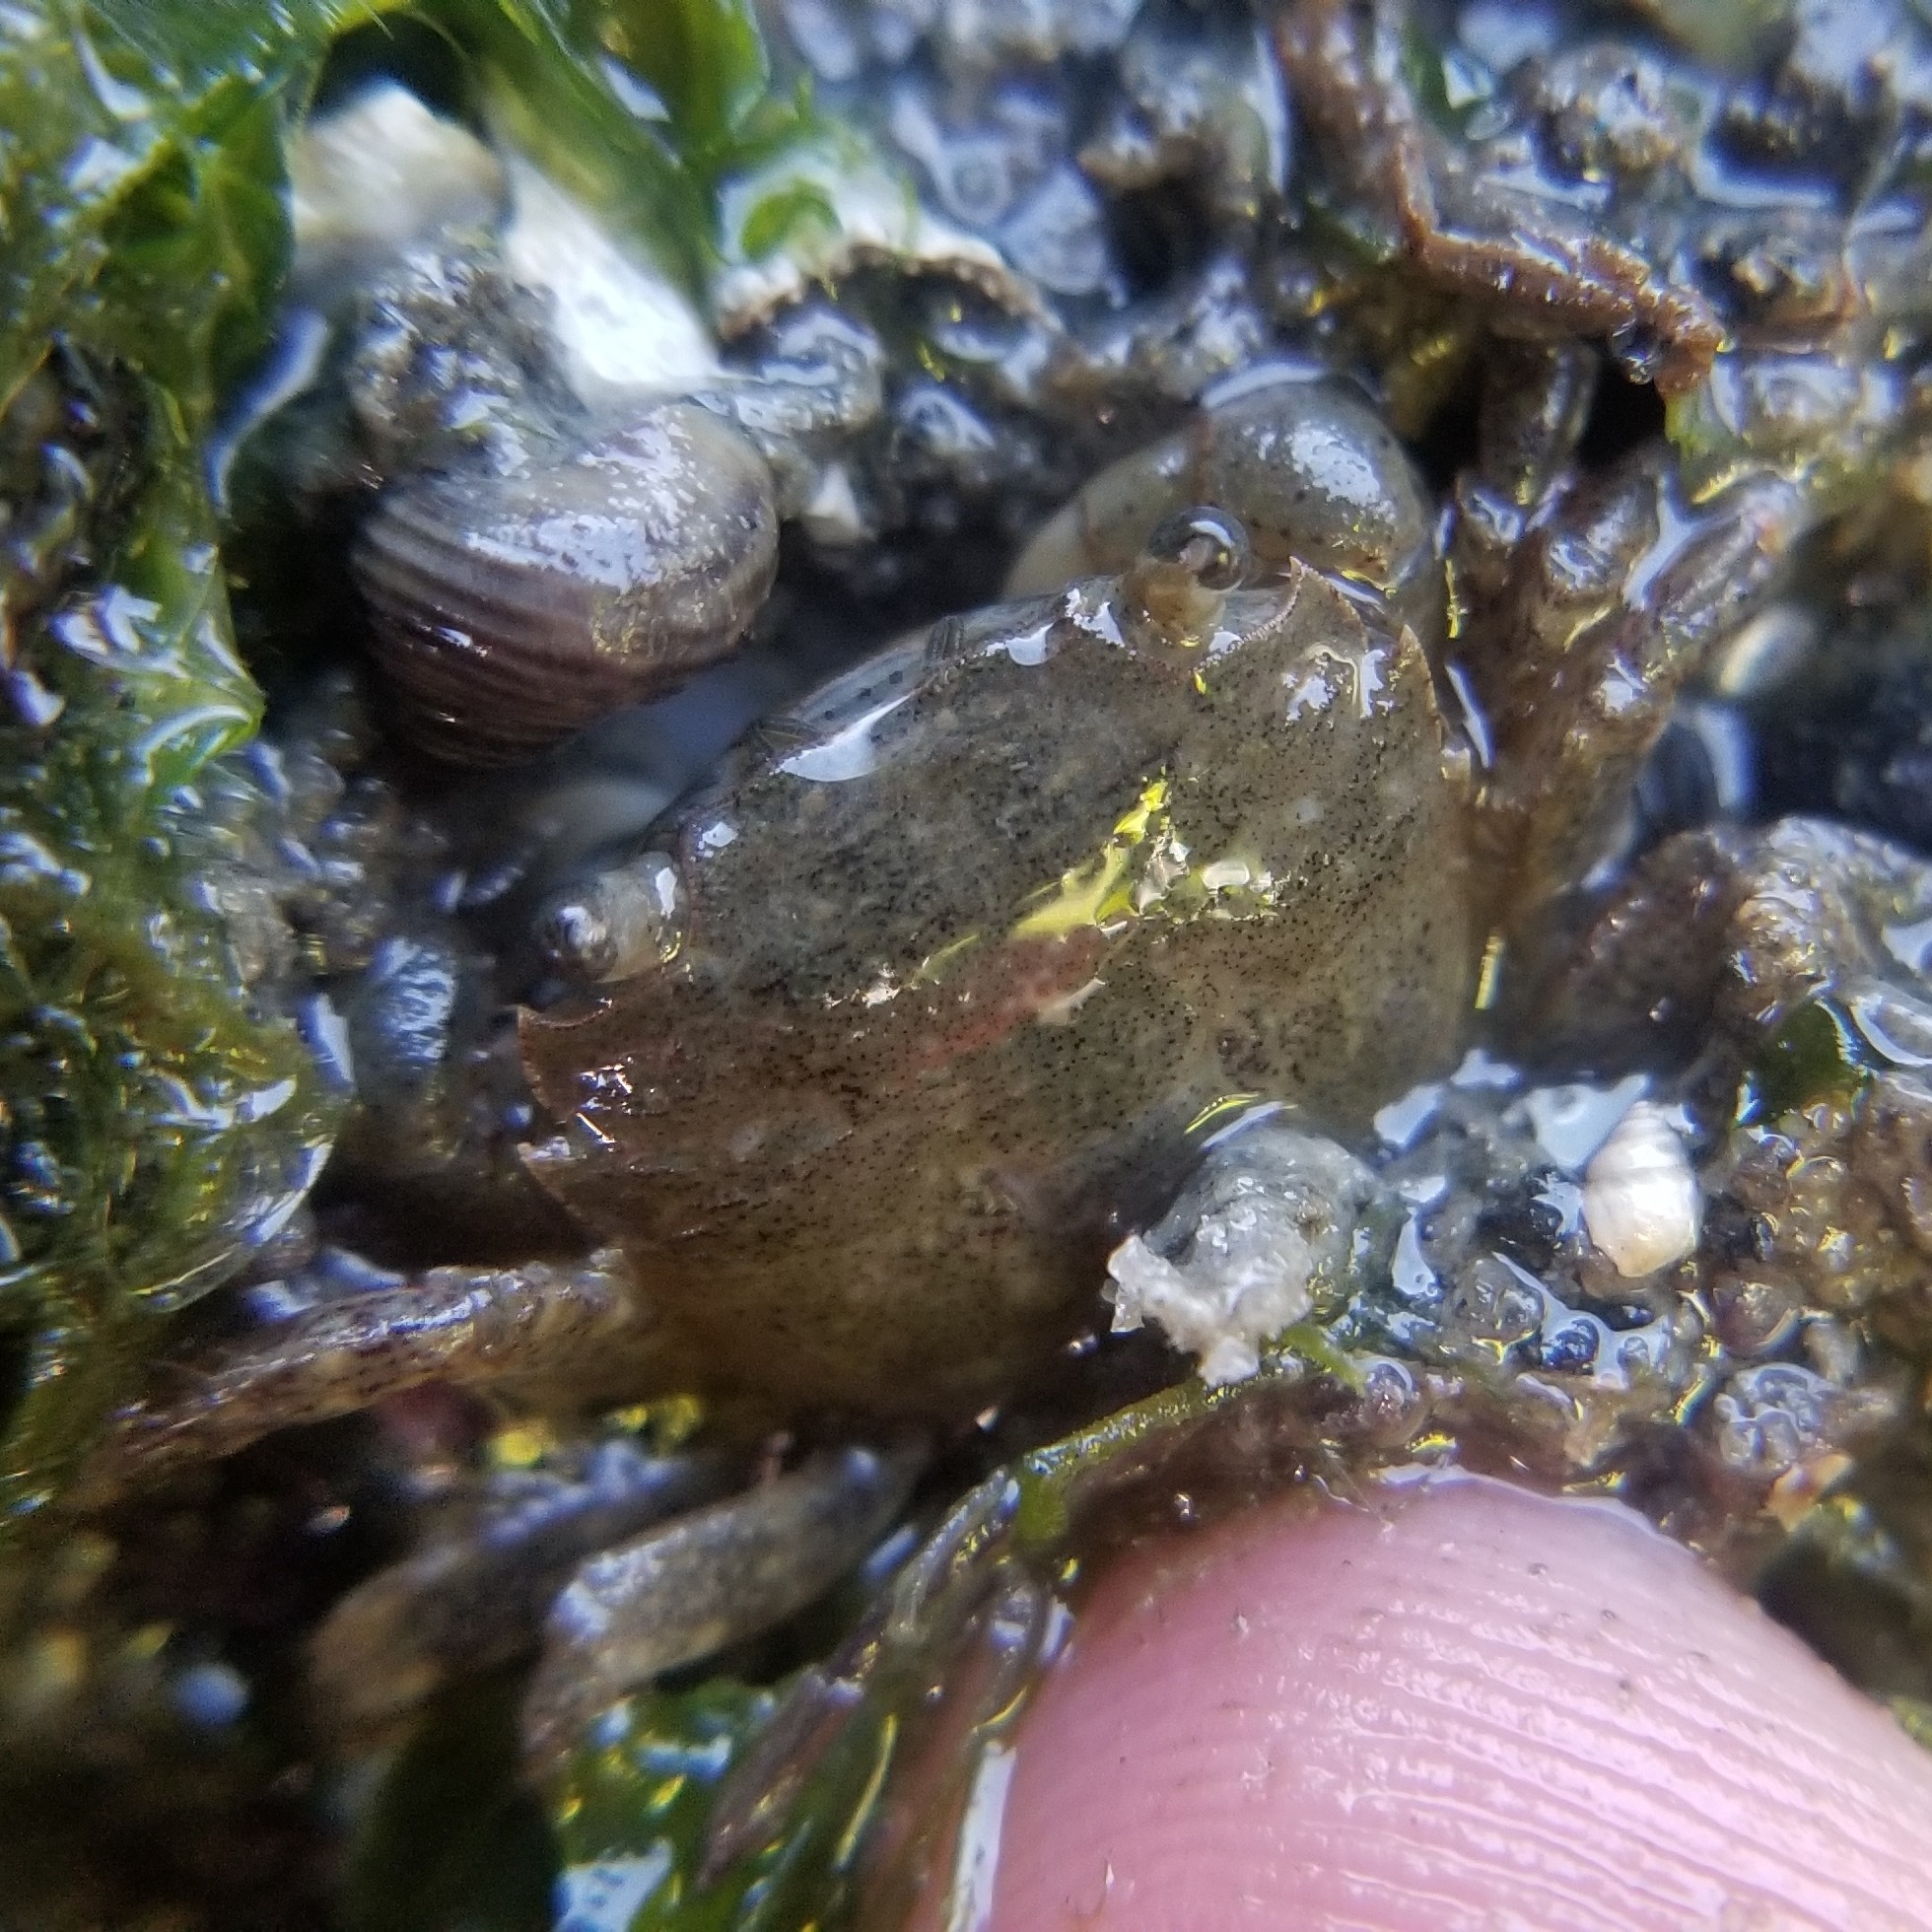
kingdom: Animalia
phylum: Arthropoda
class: Malacostraca
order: Decapoda
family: Varunidae
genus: Hemigrapsus
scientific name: Hemigrapsus oregonensis
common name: Yellow shore crab
